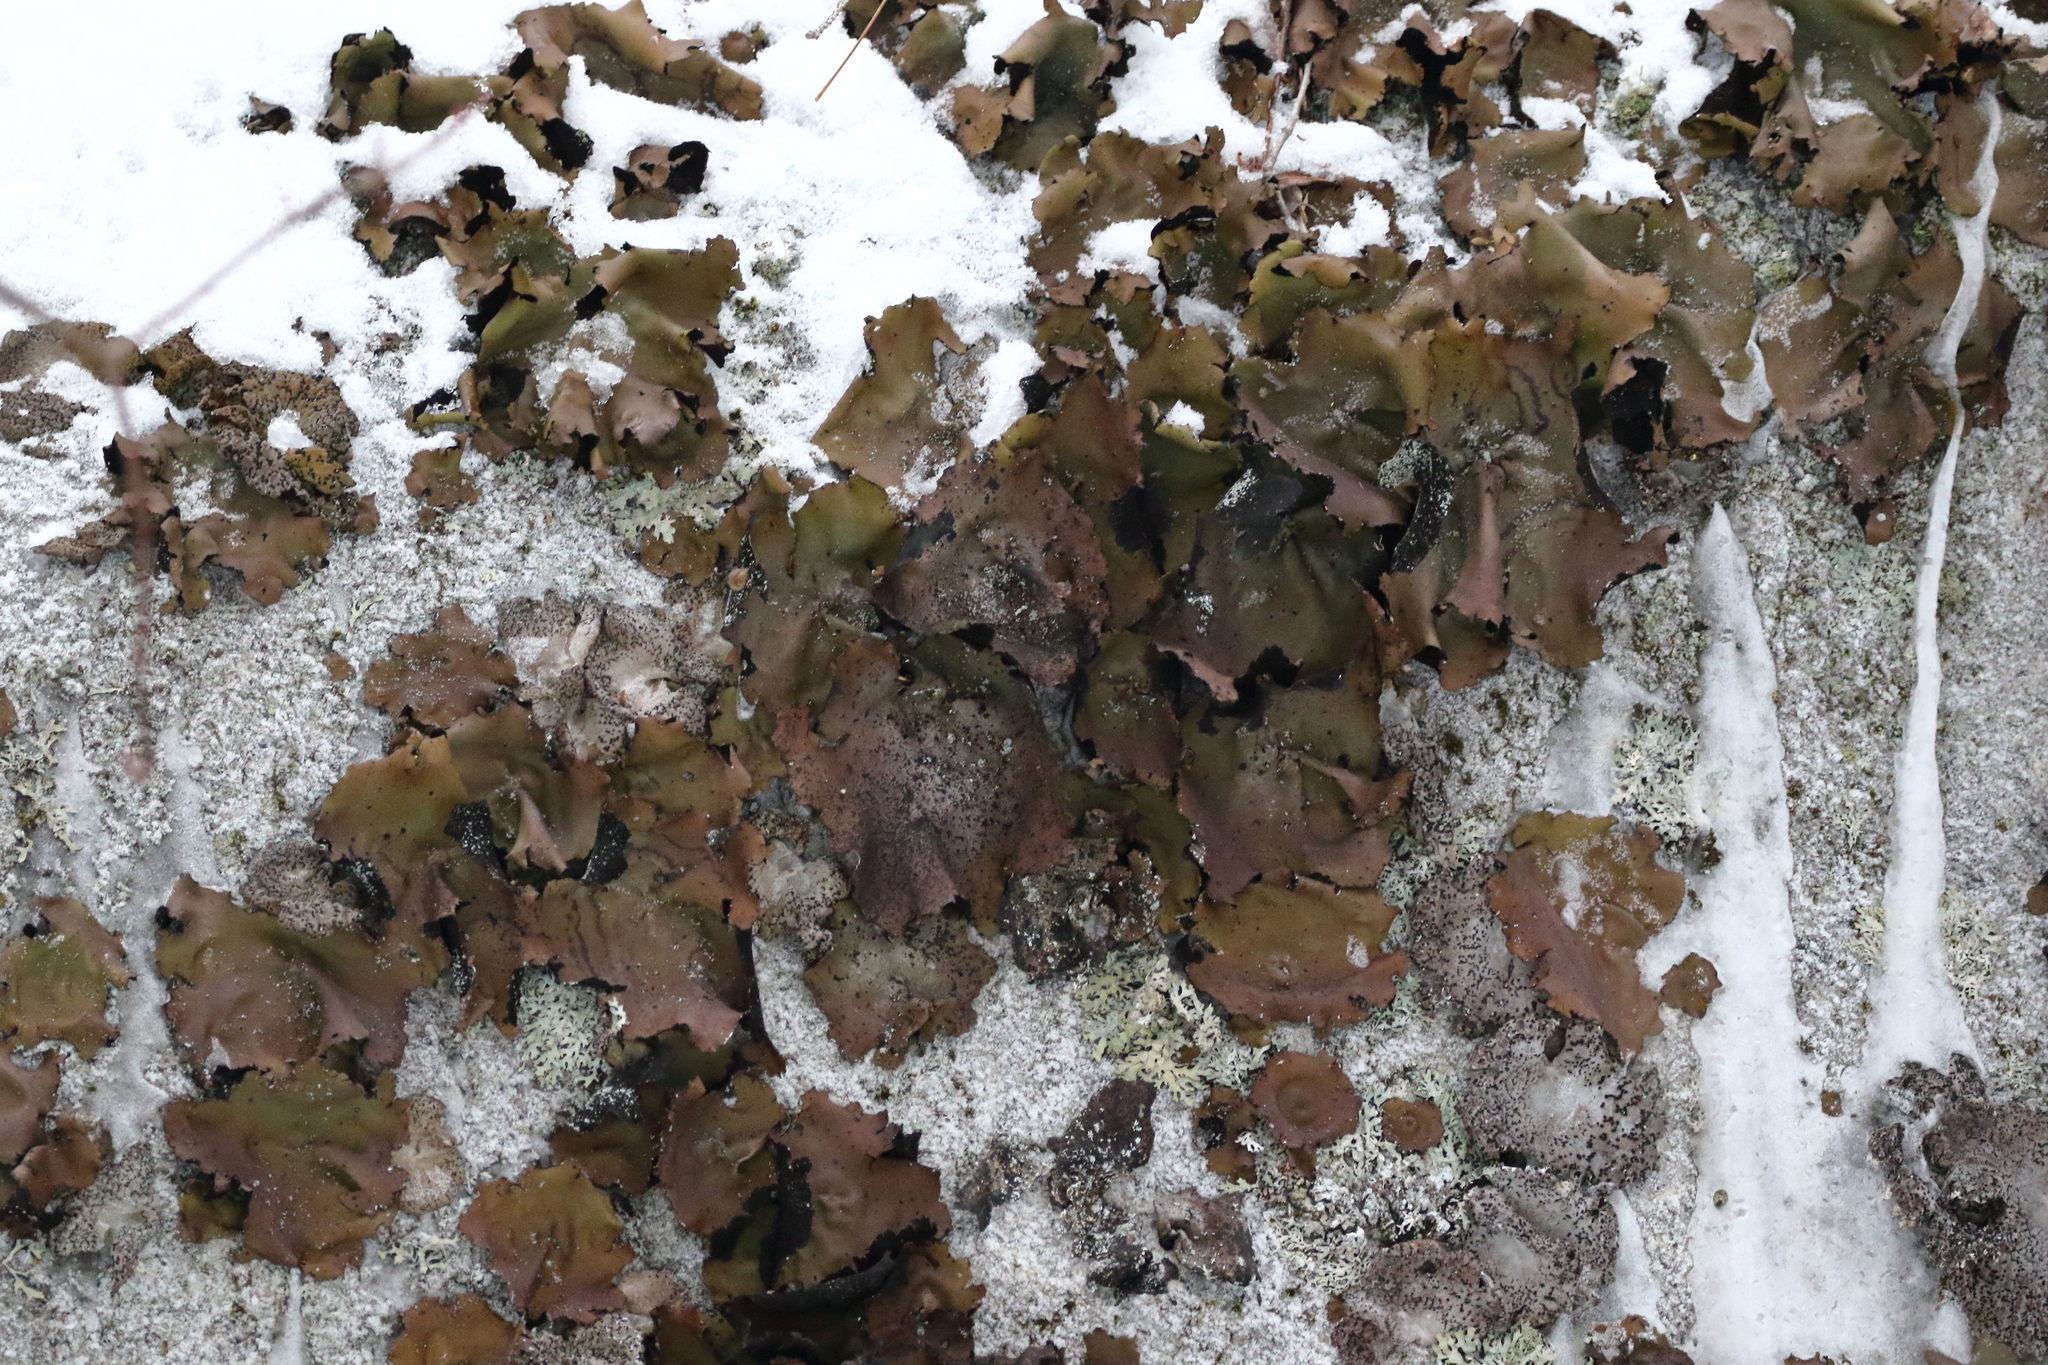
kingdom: Fungi
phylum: Ascomycota
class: Lecanoromycetes
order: Umbilicariales
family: Umbilicariaceae
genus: Umbilicaria
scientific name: Umbilicaria mammulata
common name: Smooth rock tripe
